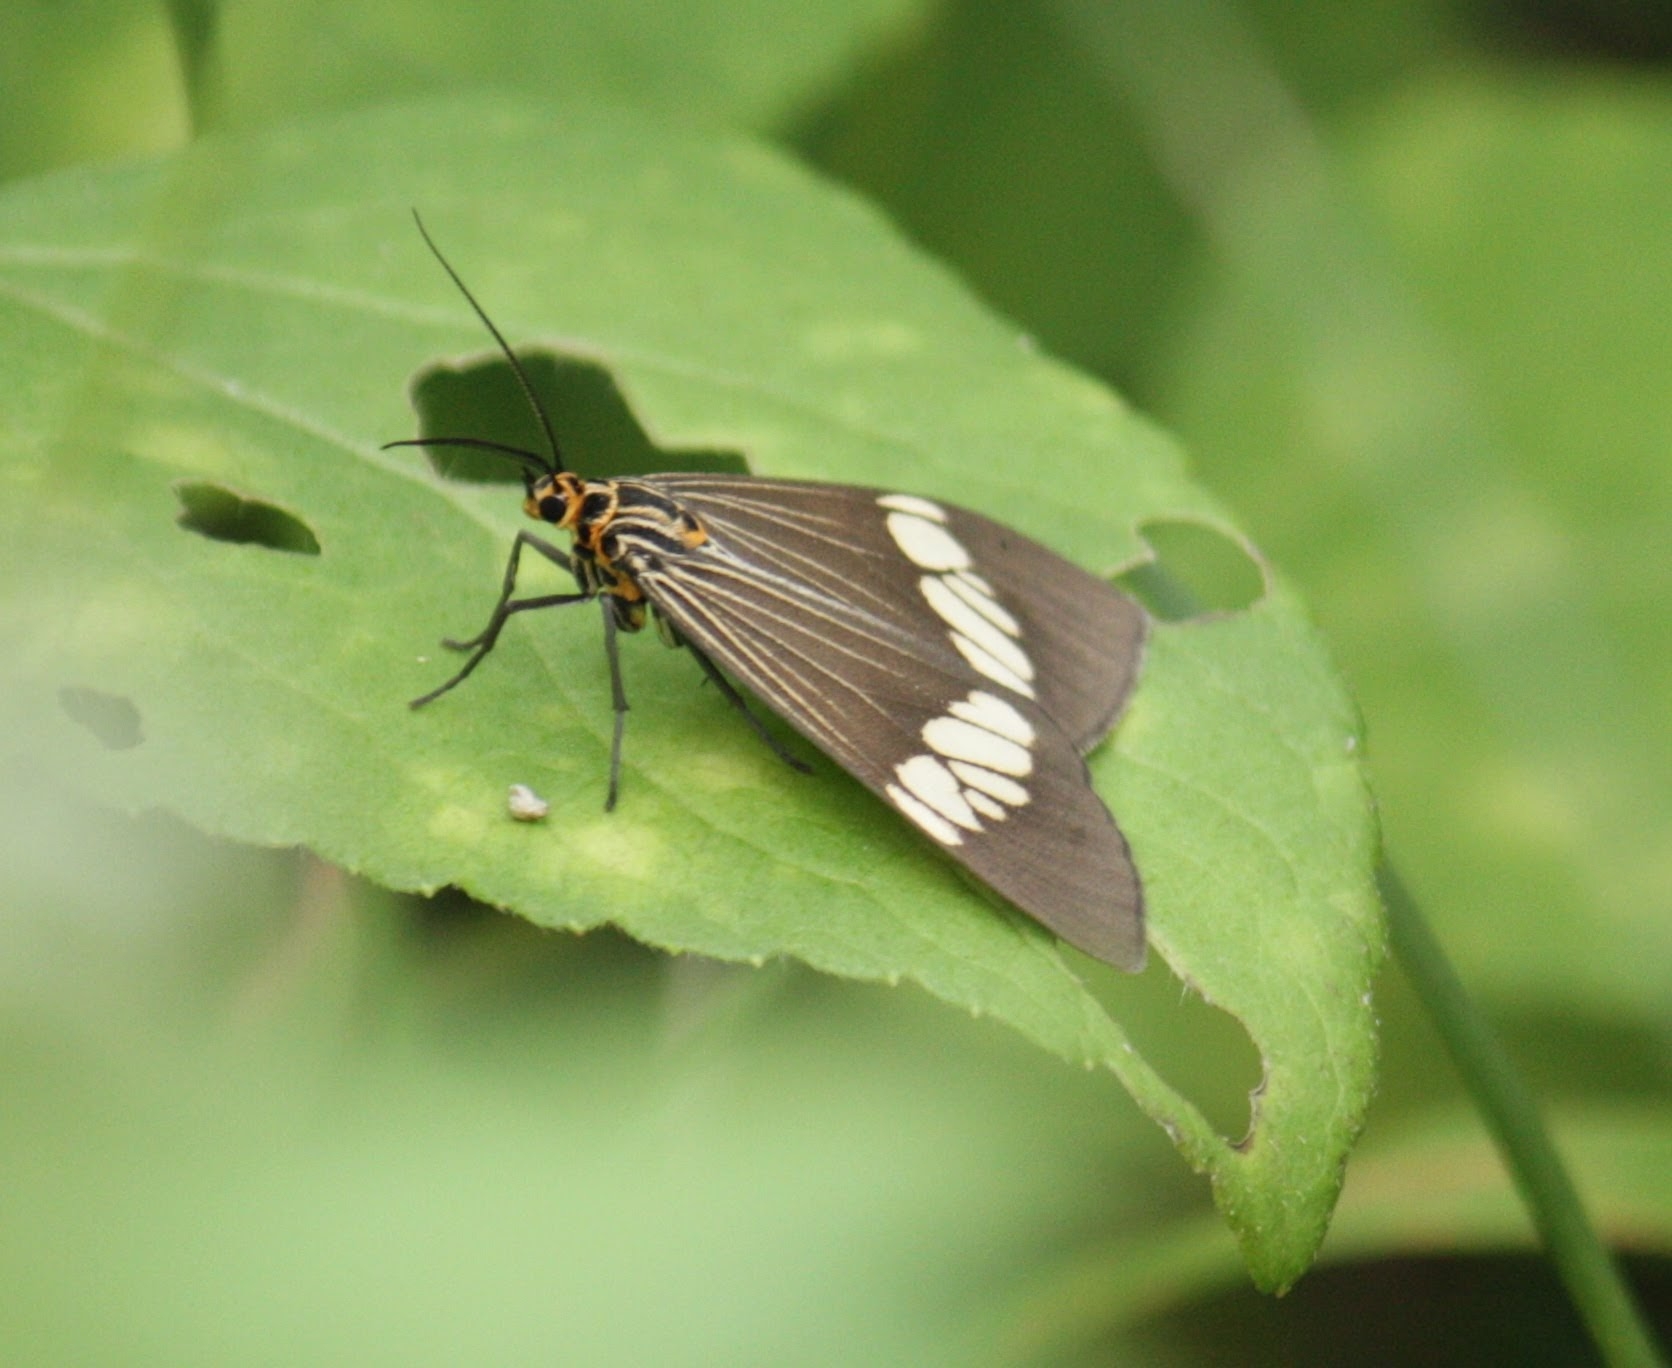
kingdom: Animalia
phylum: Arthropoda
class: Insecta
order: Lepidoptera
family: Erebidae
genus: Nyctemera
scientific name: Nyctemera baulus
